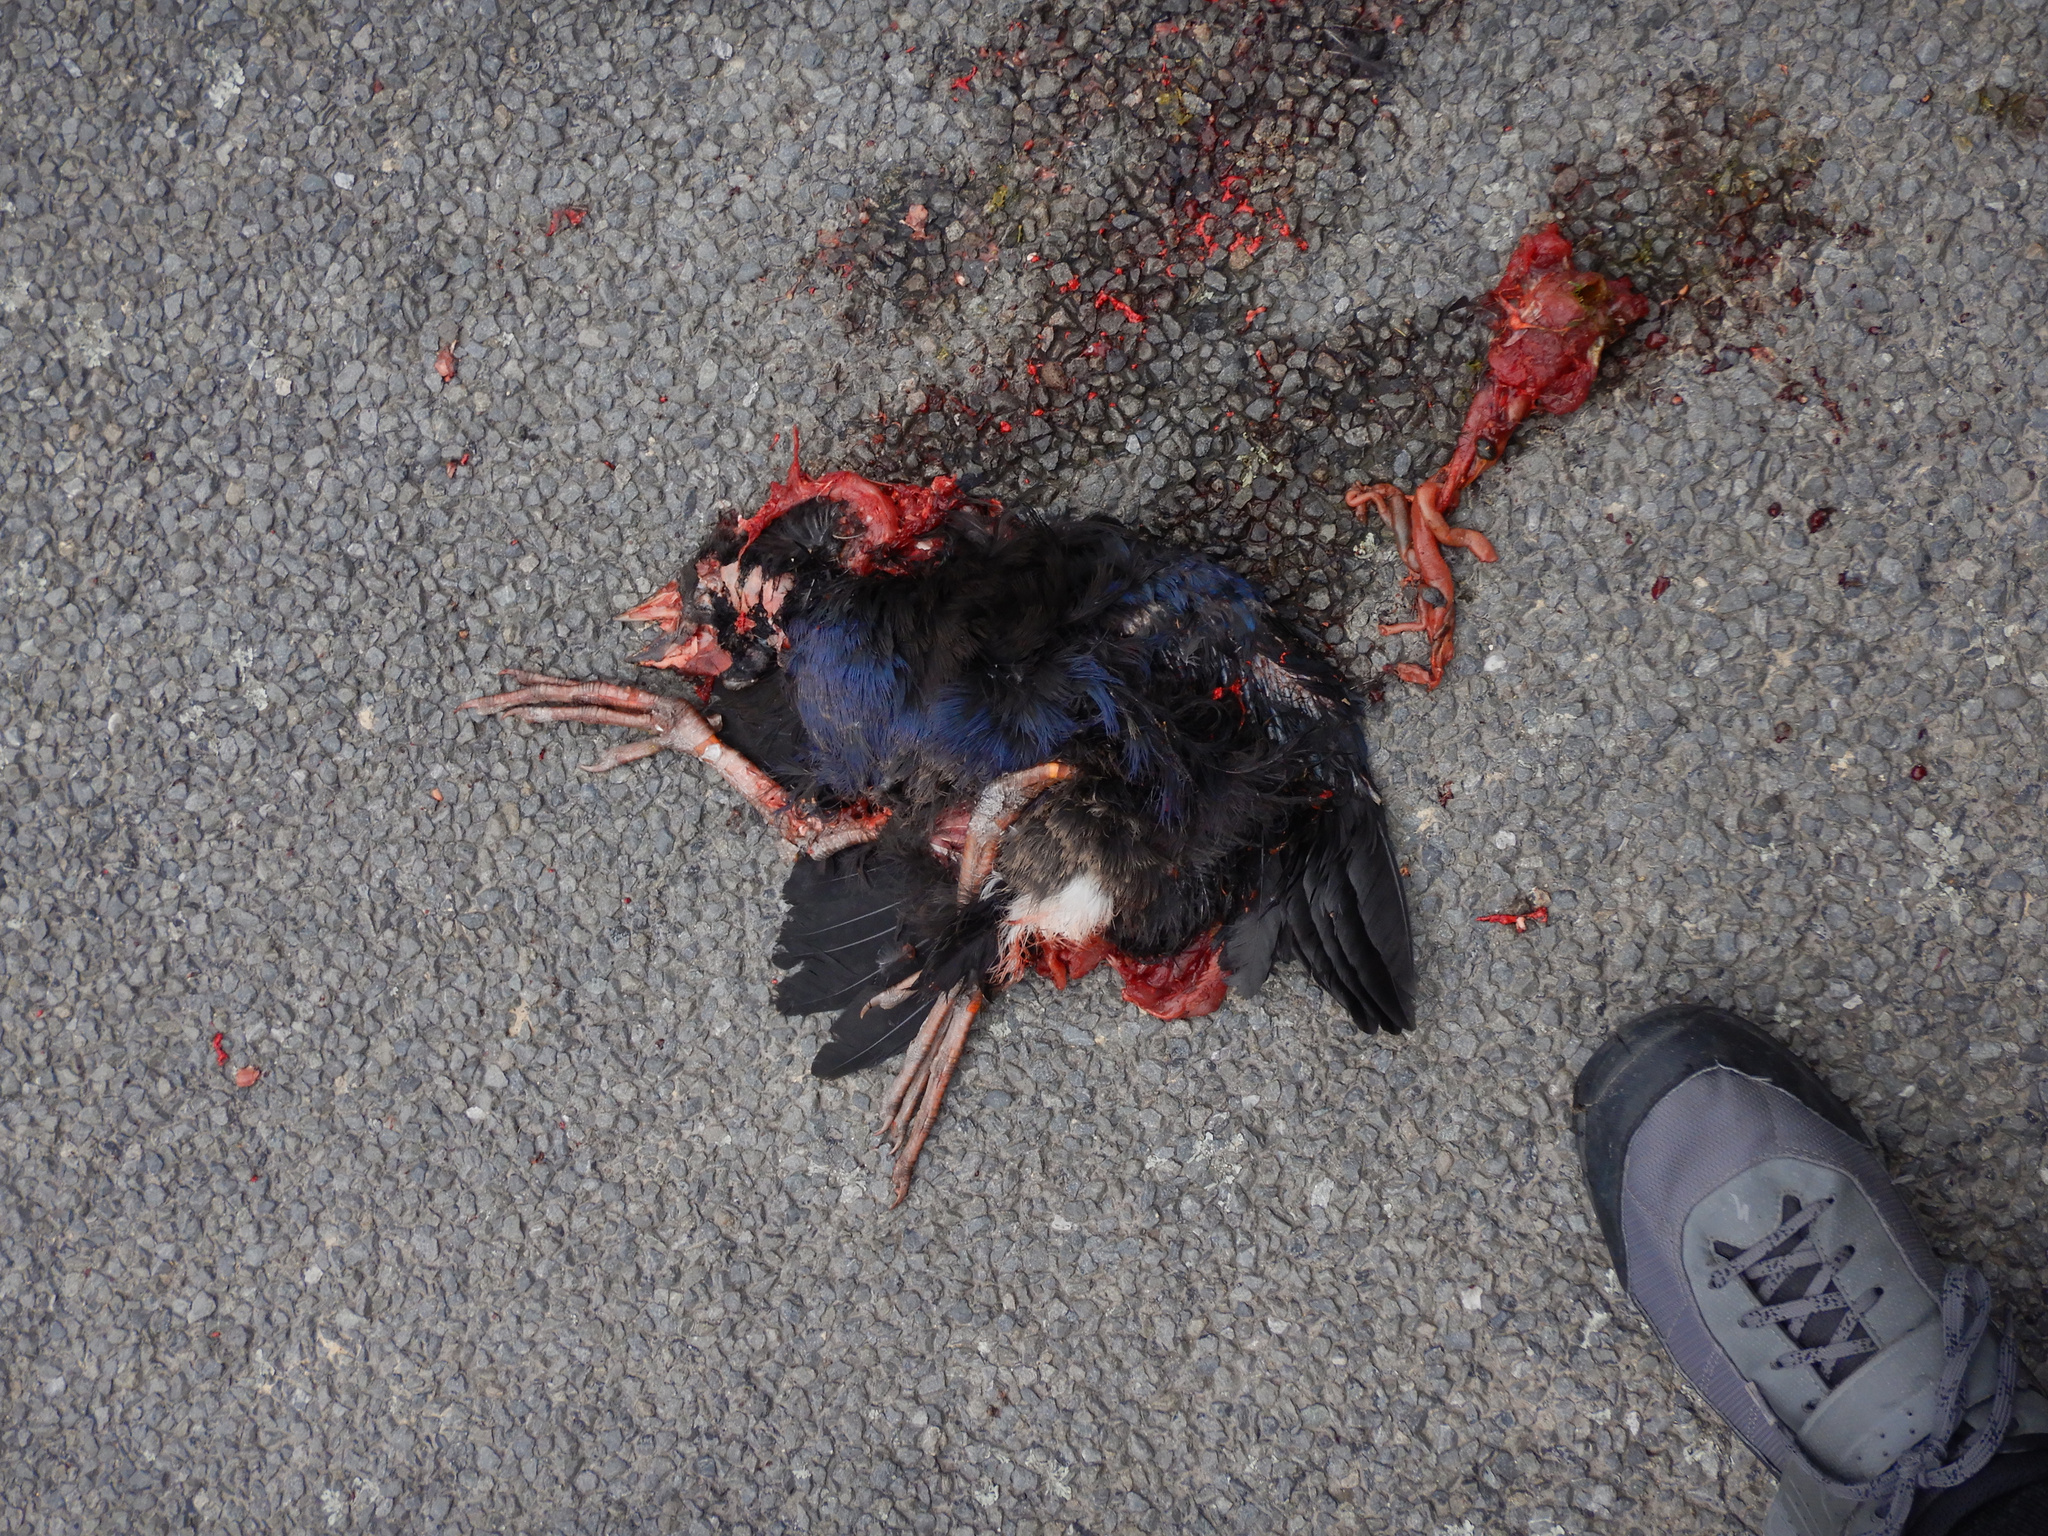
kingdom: Animalia
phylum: Chordata
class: Aves
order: Gruiformes
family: Rallidae
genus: Porphyrio
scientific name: Porphyrio melanotus
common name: Australasian swamphen
